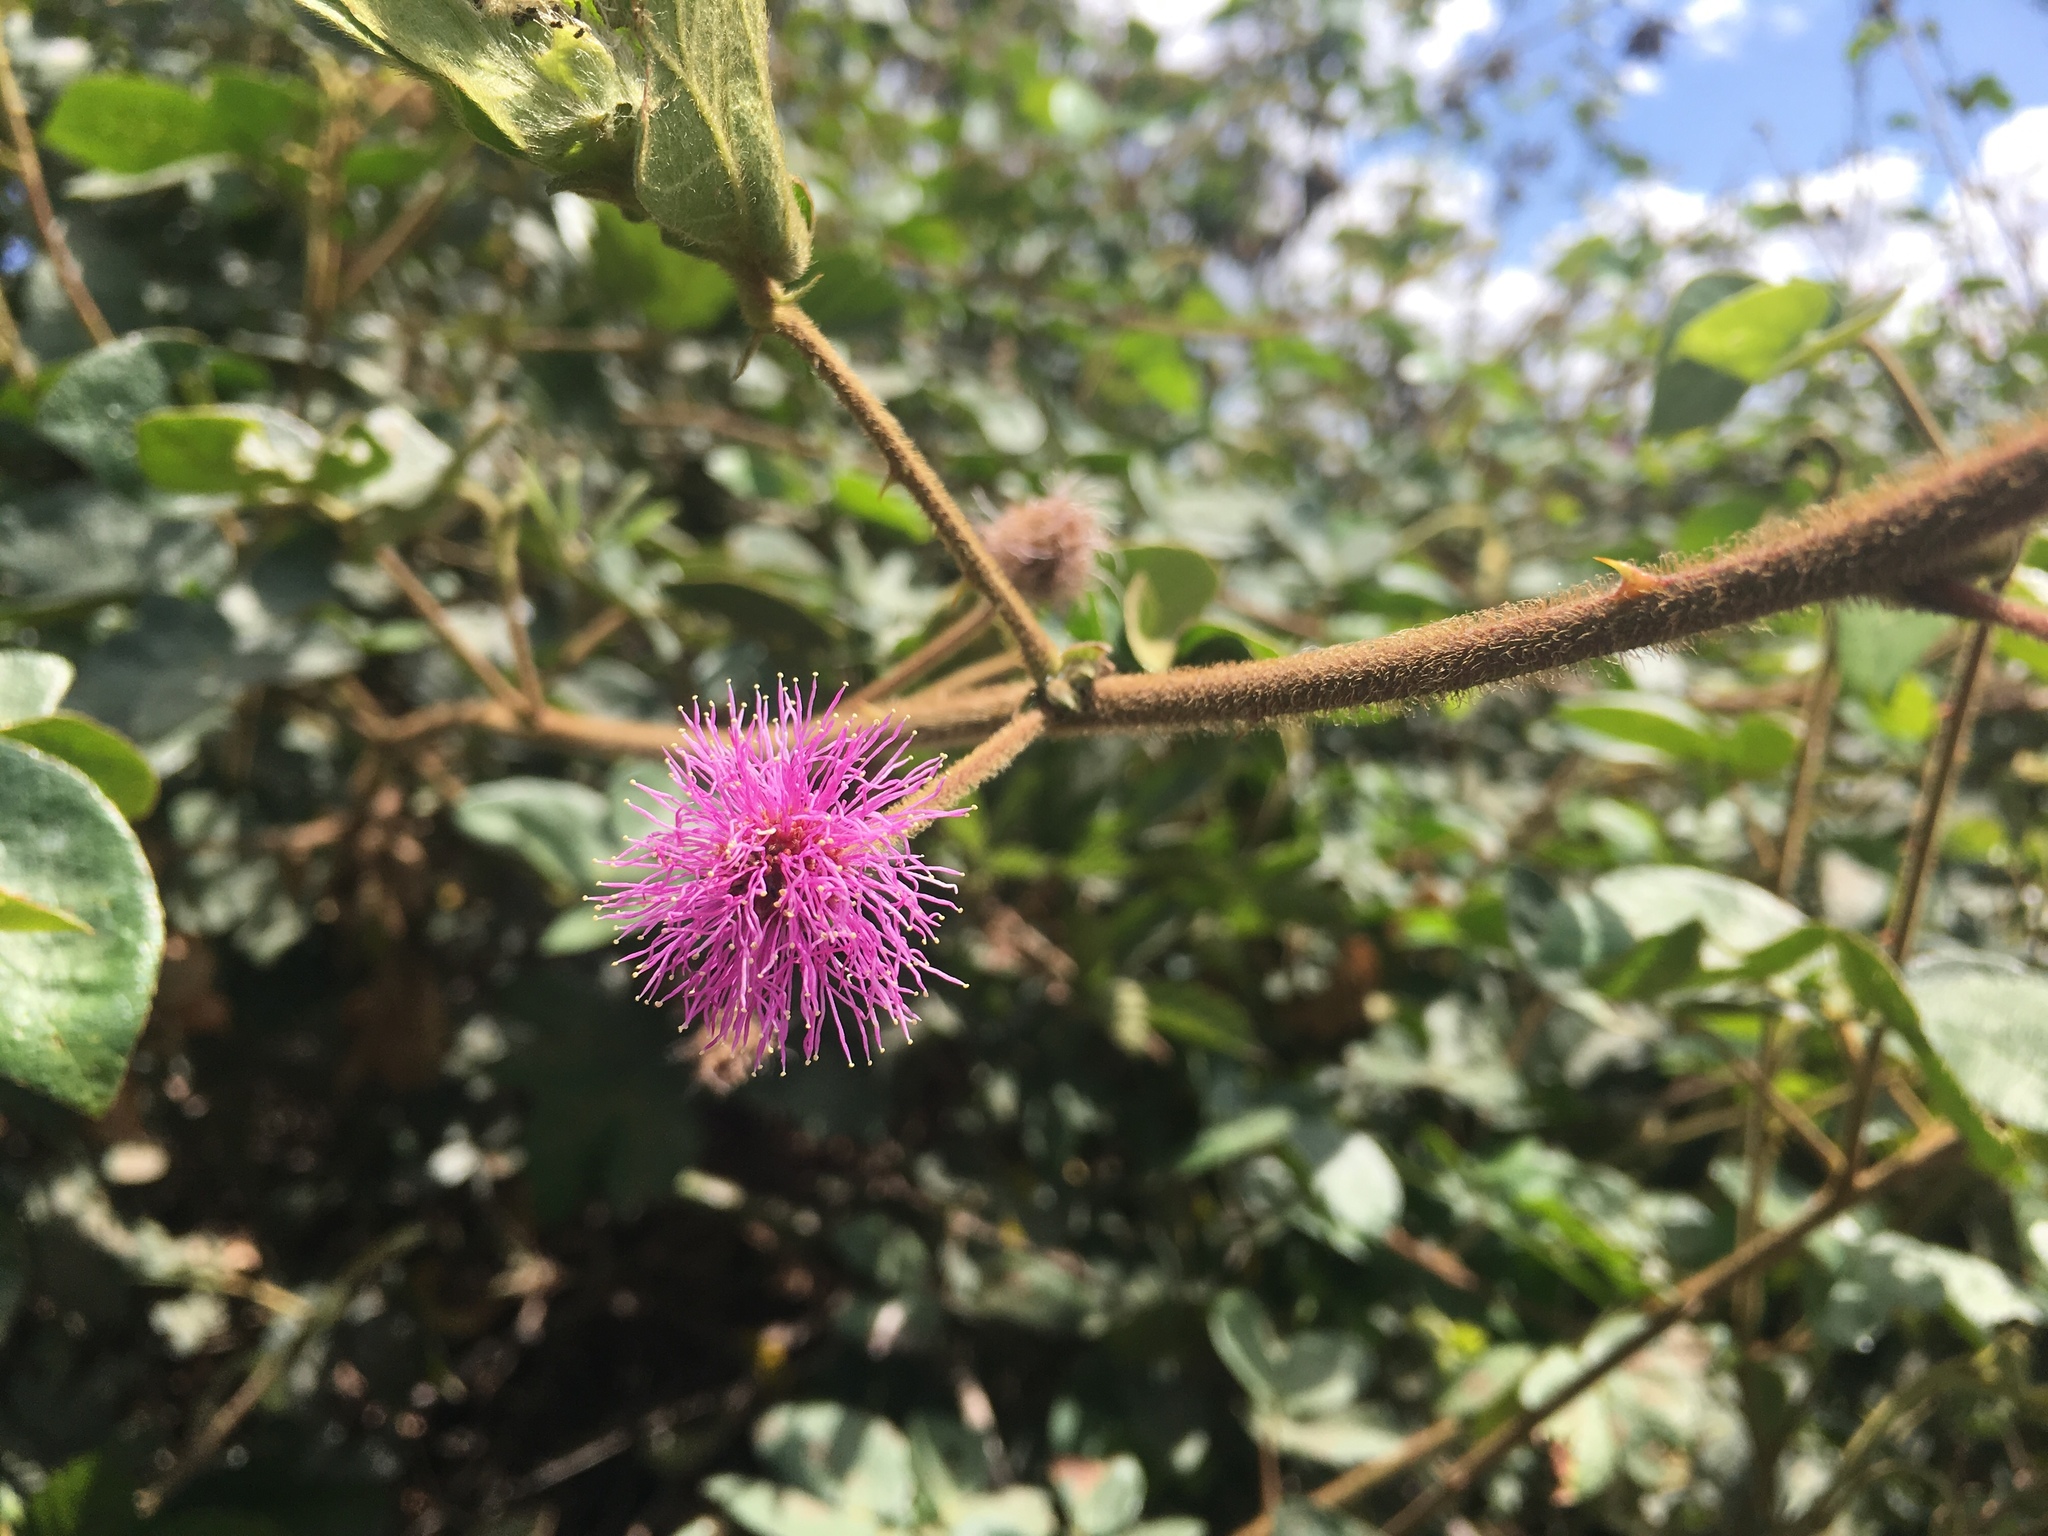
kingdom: Plantae
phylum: Tracheophyta
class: Magnoliopsida
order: Fabales
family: Fabaceae
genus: Mimosa
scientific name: Mimosa albida
